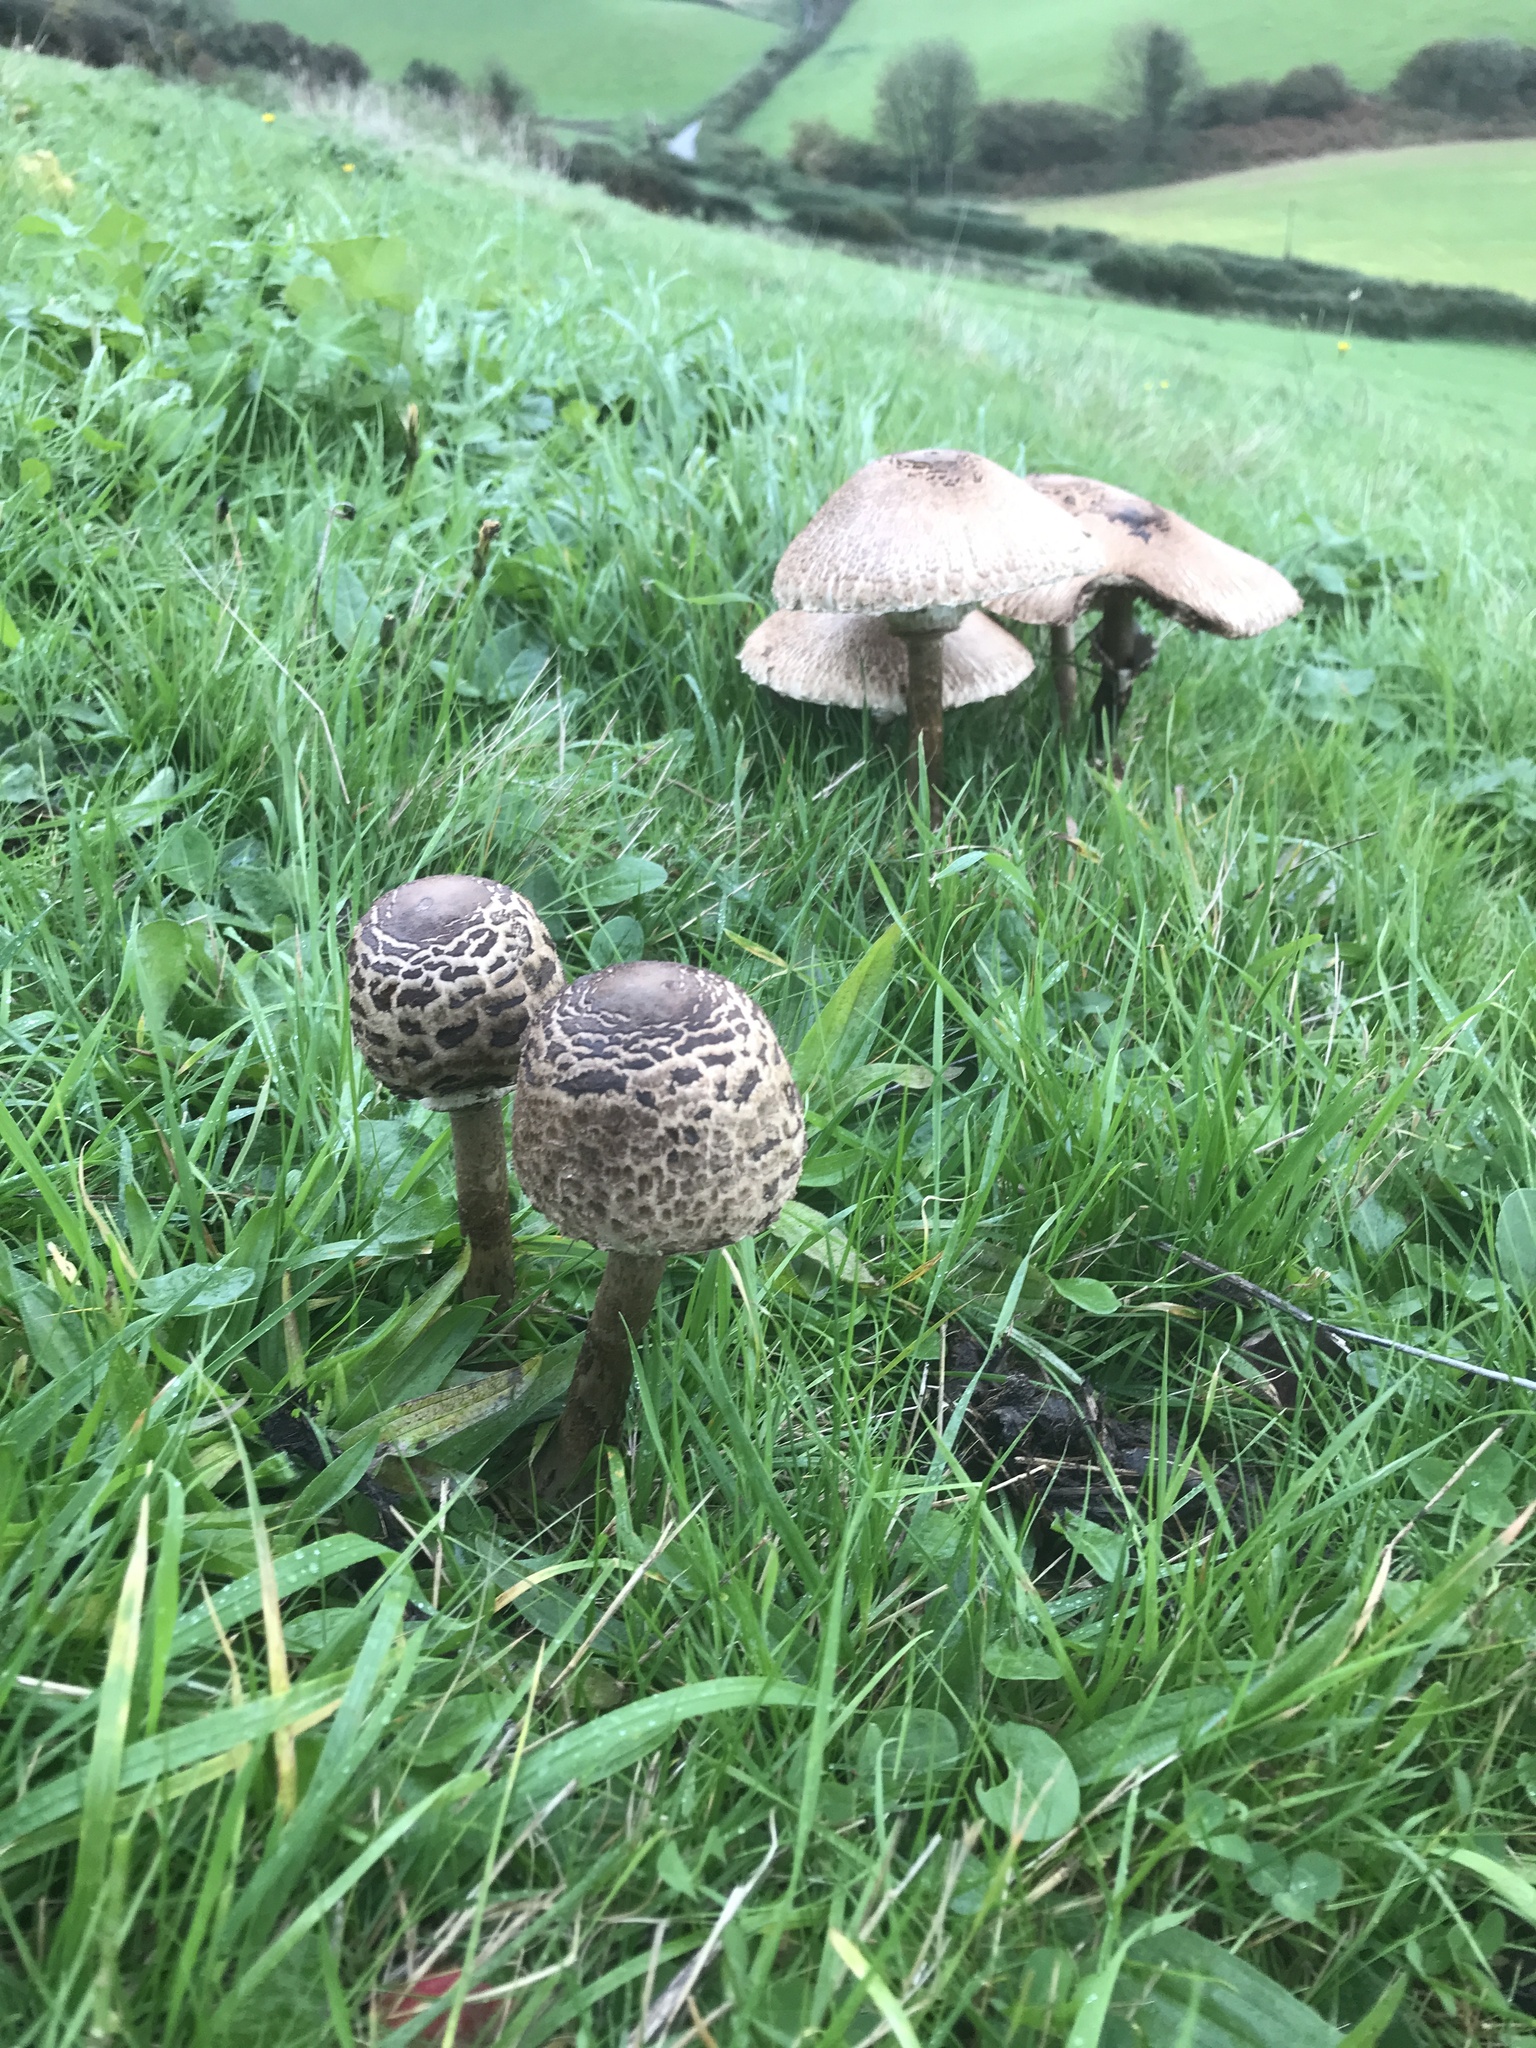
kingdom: Fungi
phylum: Basidiomycota
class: Agaricomycetes
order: Agaricales
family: Agaricaceae
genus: Macrolepiota
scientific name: Macrolepiota procera
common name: Parasol
